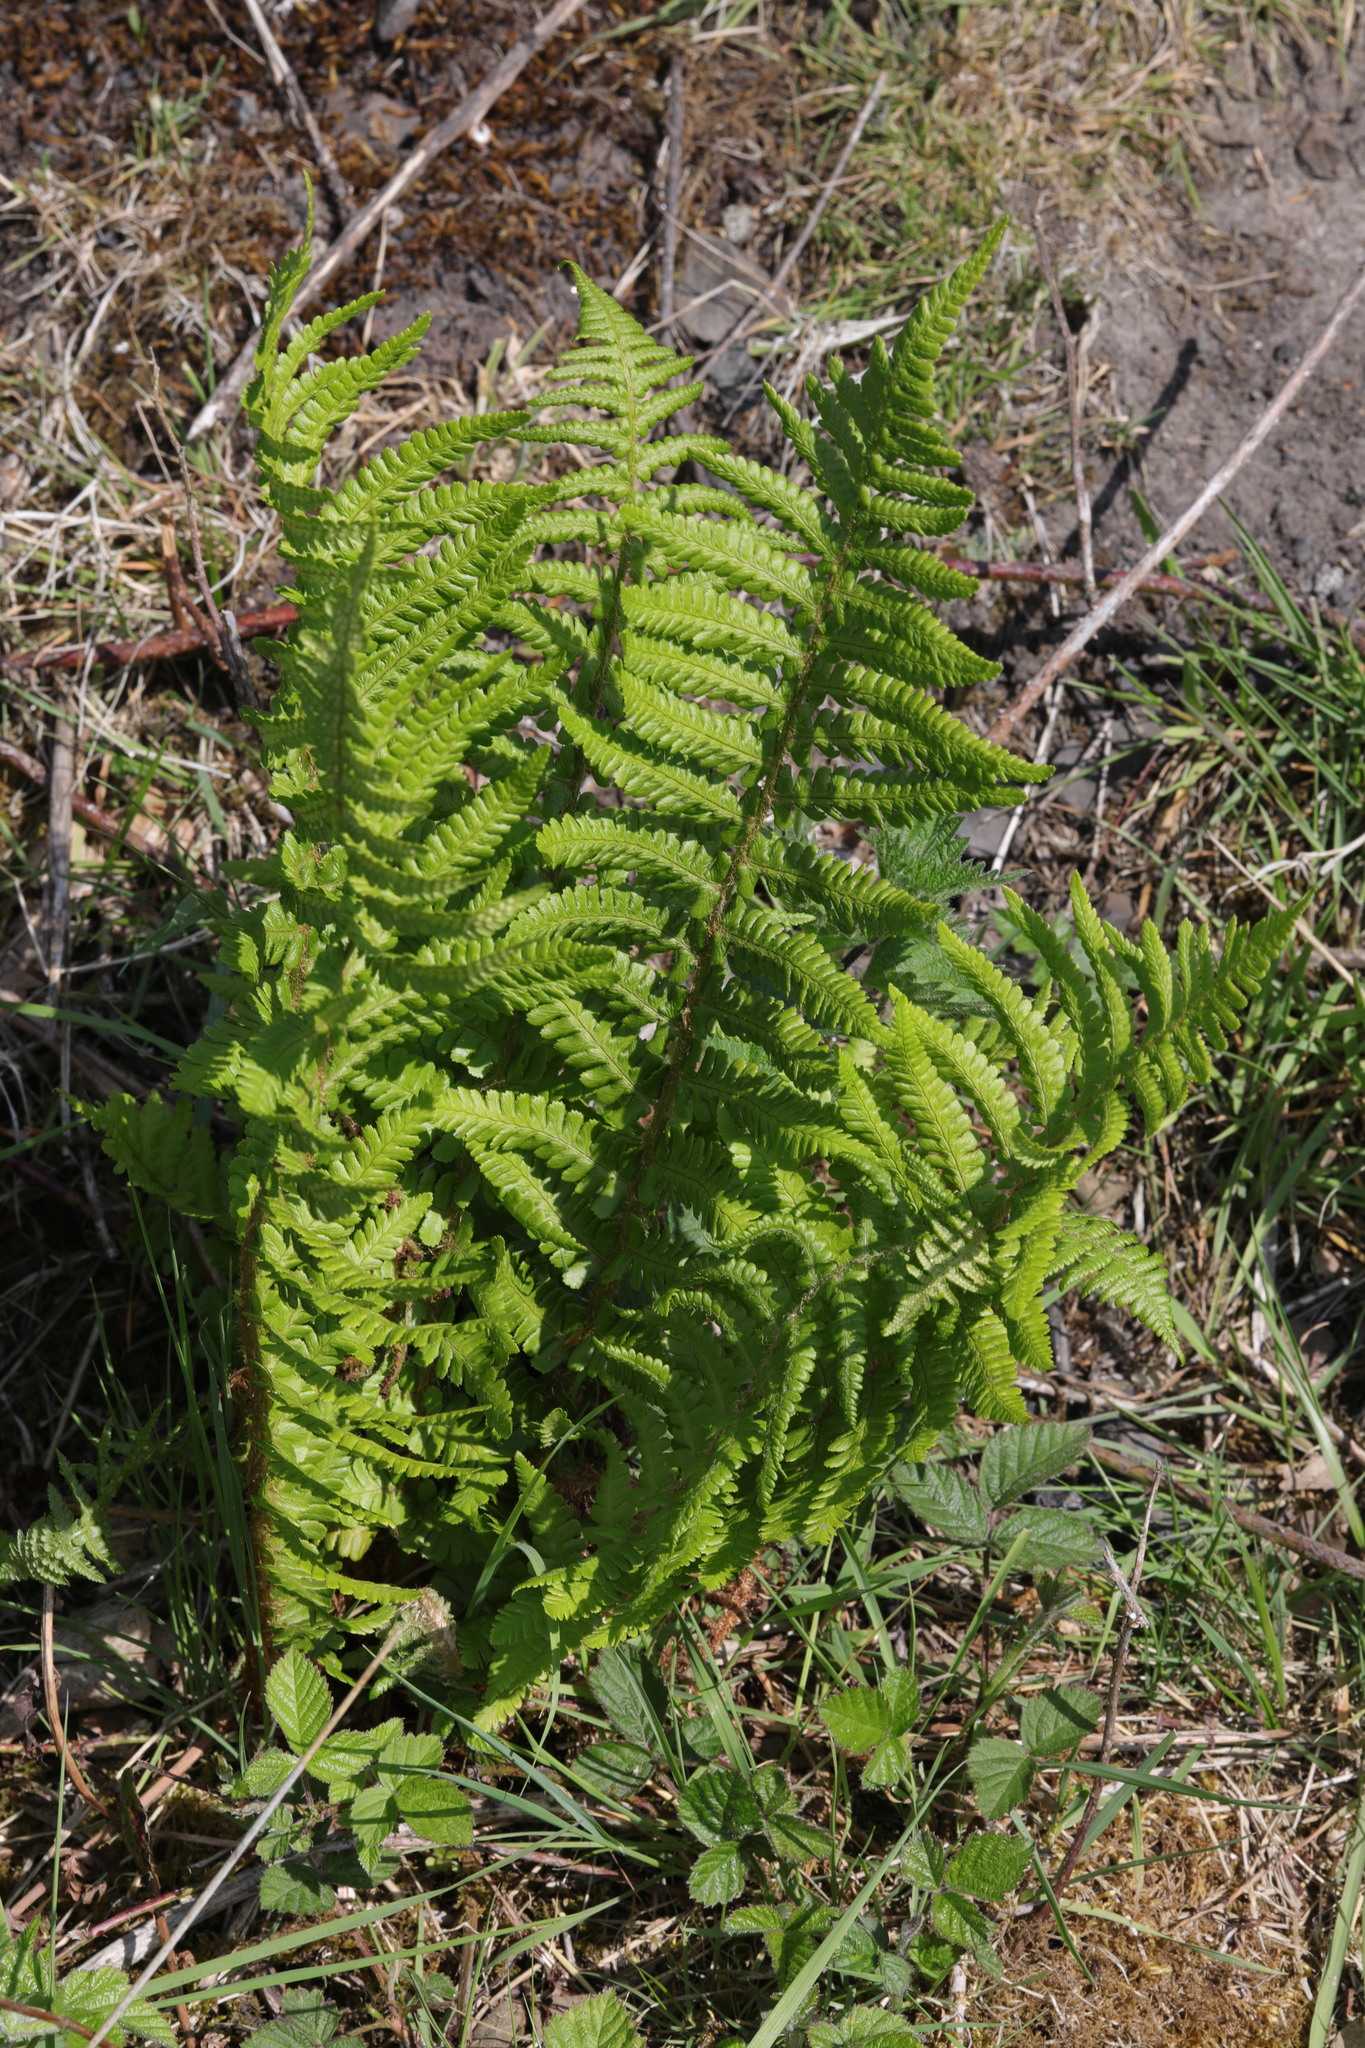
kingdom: Plantae
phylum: Tracheophyta
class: Polypodiopsida
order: Polypodiales
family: Dryopteridaceae
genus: Dryopteris
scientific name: Dryopteris
